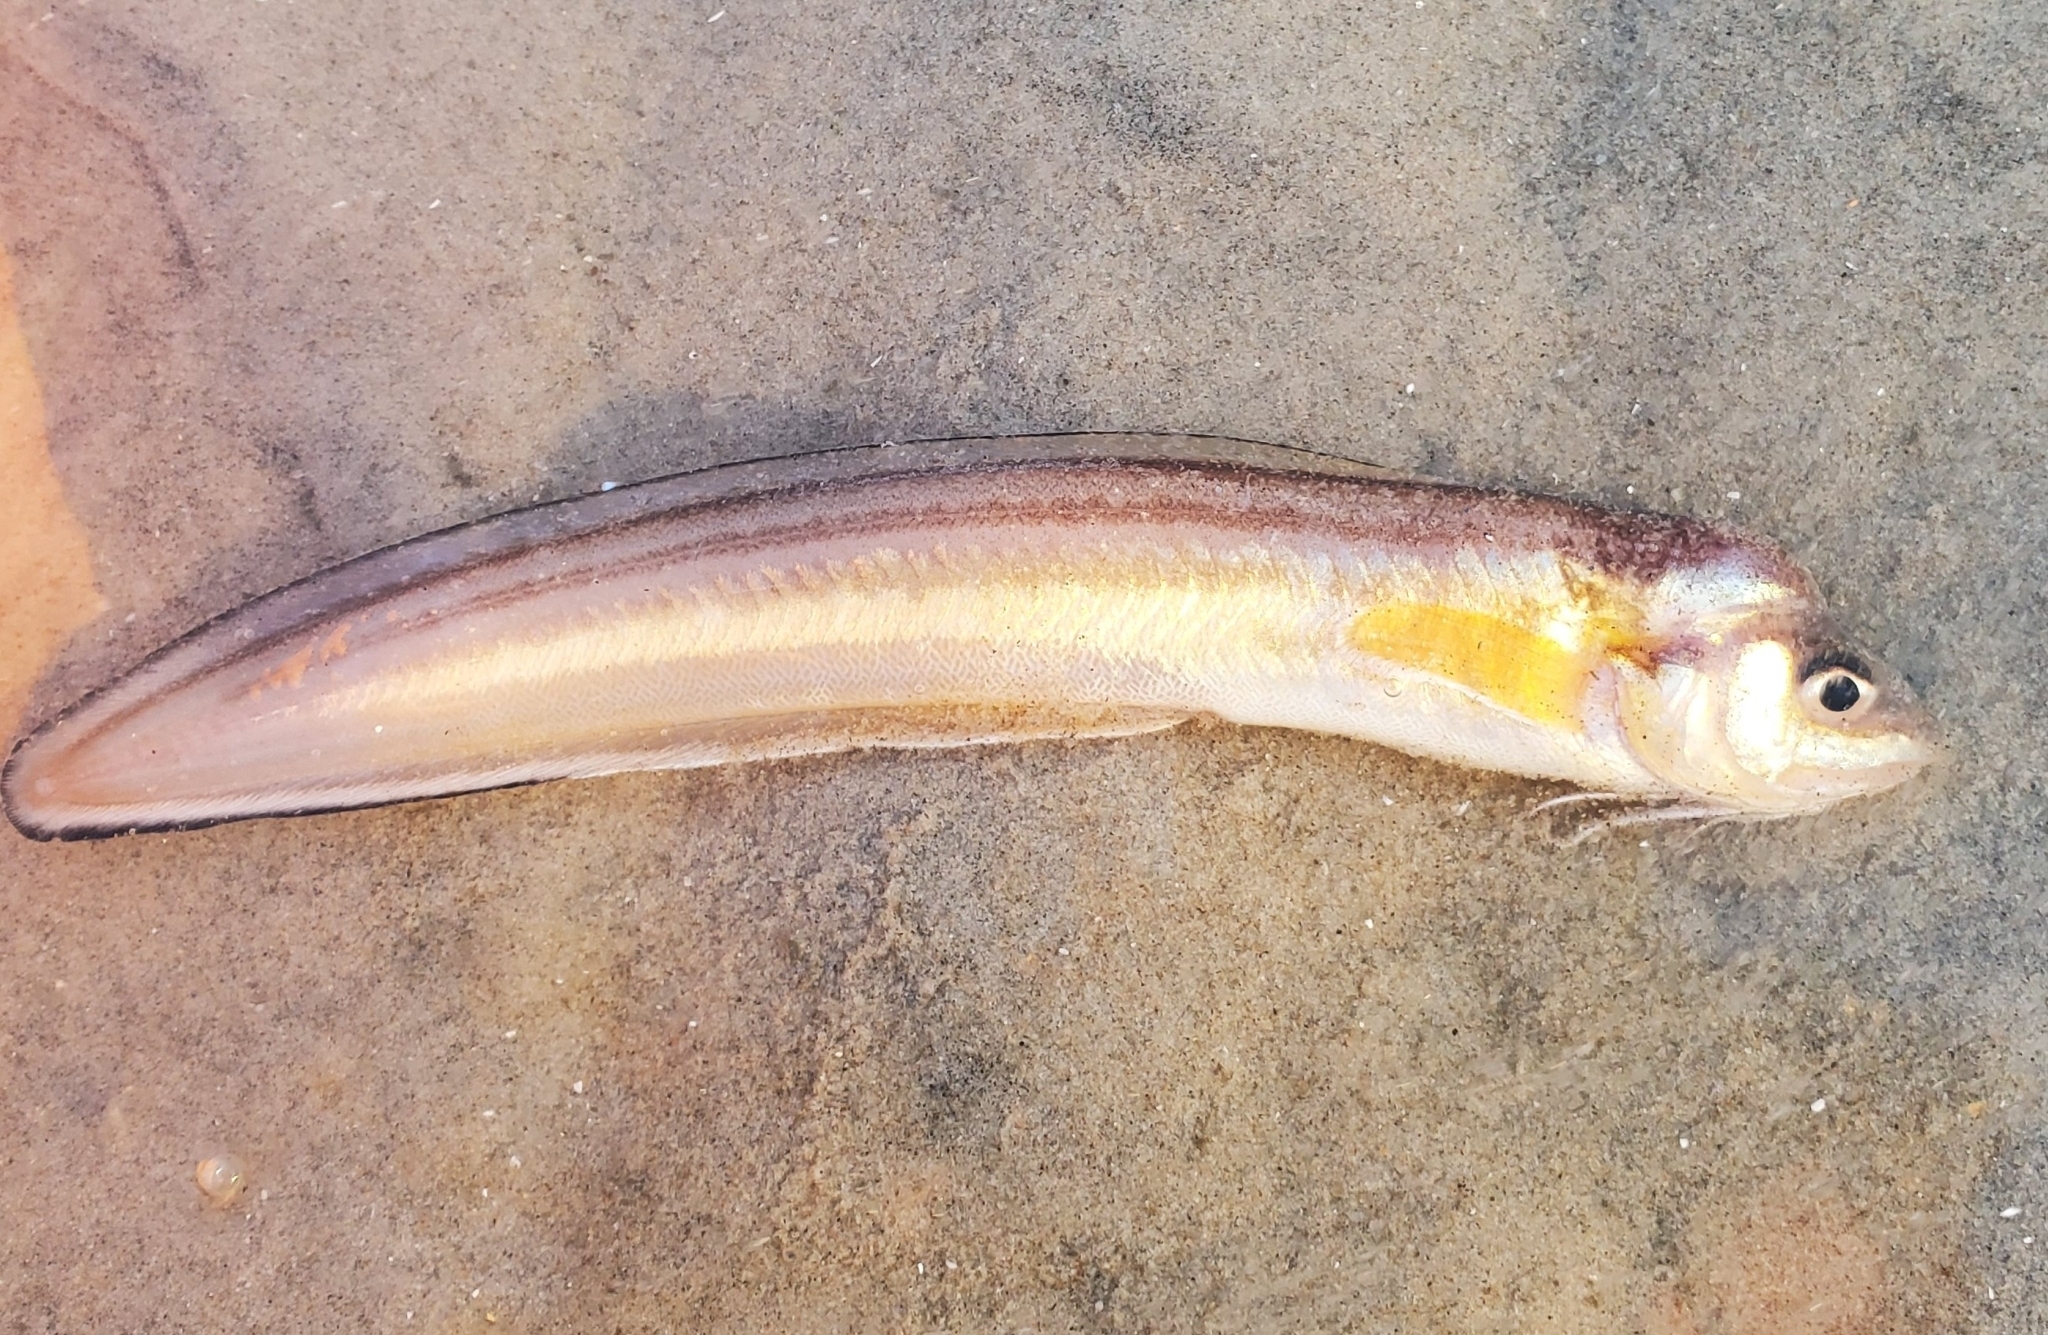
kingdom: Animalia
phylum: Chordata
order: Ophidiiformes
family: Ophidiidae
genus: Ophidion
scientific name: Ophidion marginatum
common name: Striped cusk-eel
